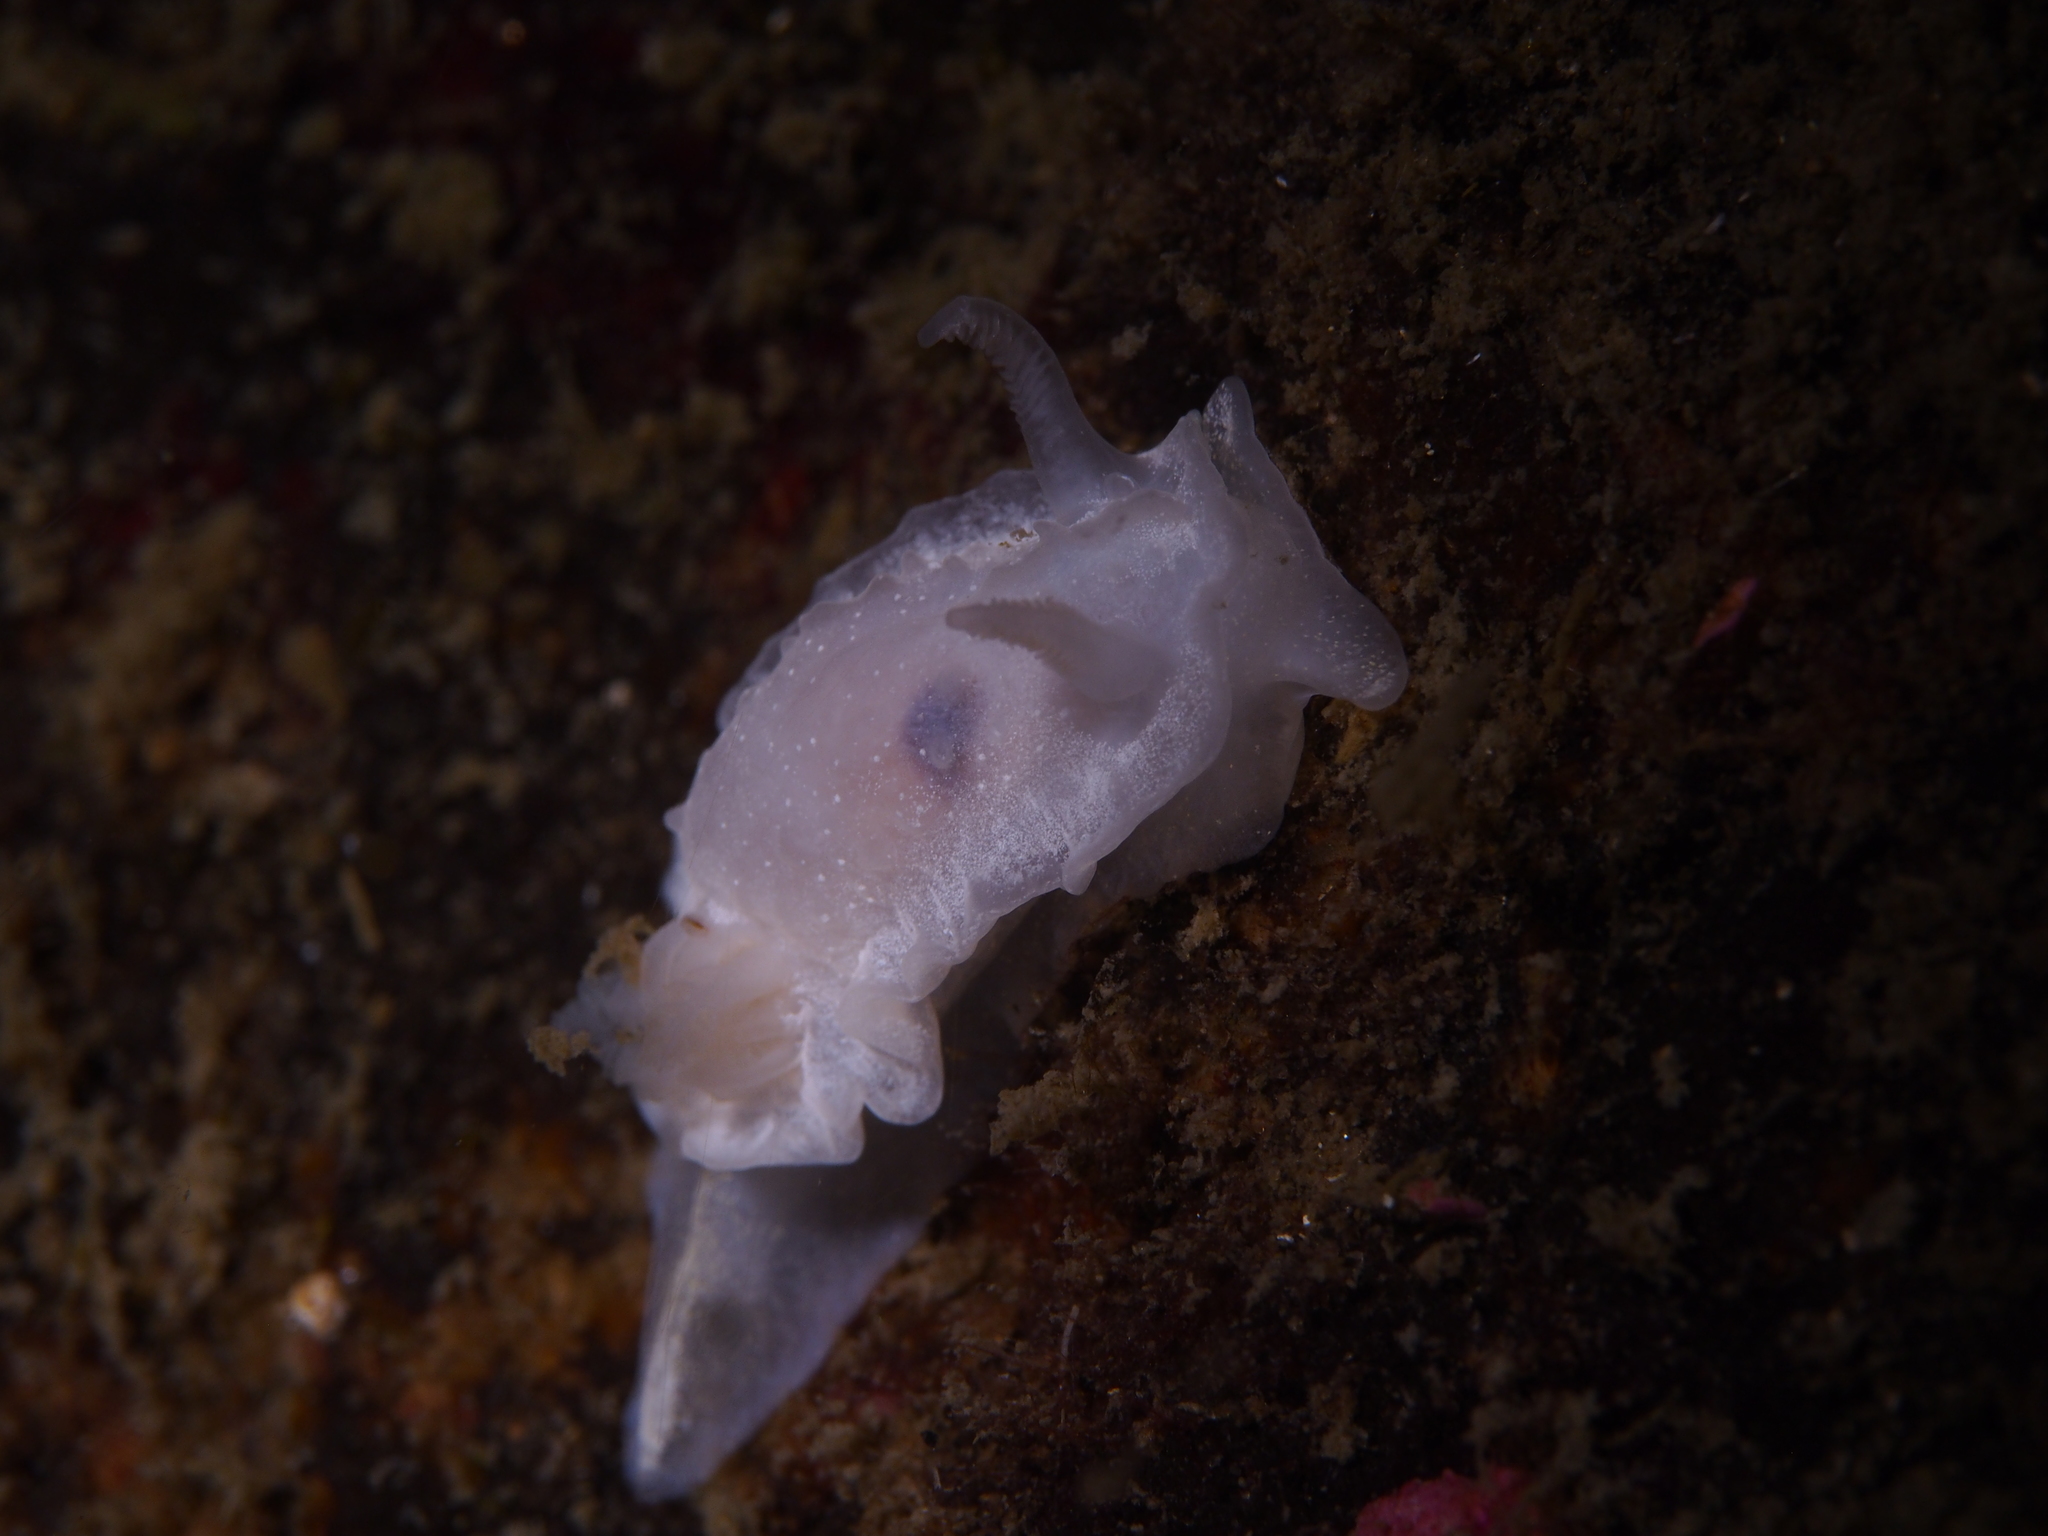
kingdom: Animalia
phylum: Mollusca
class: Gastropoda
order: Nudibranchia
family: Goniodorididae
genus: Okenia
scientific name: Okenia
